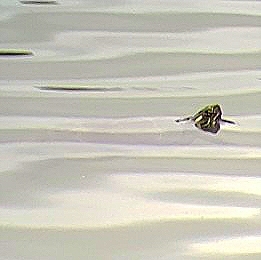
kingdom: Animalia
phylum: Chordata
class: Testudines
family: Emydidae
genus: Chrysemys
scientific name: Chrysemys picta
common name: Painted turtle
